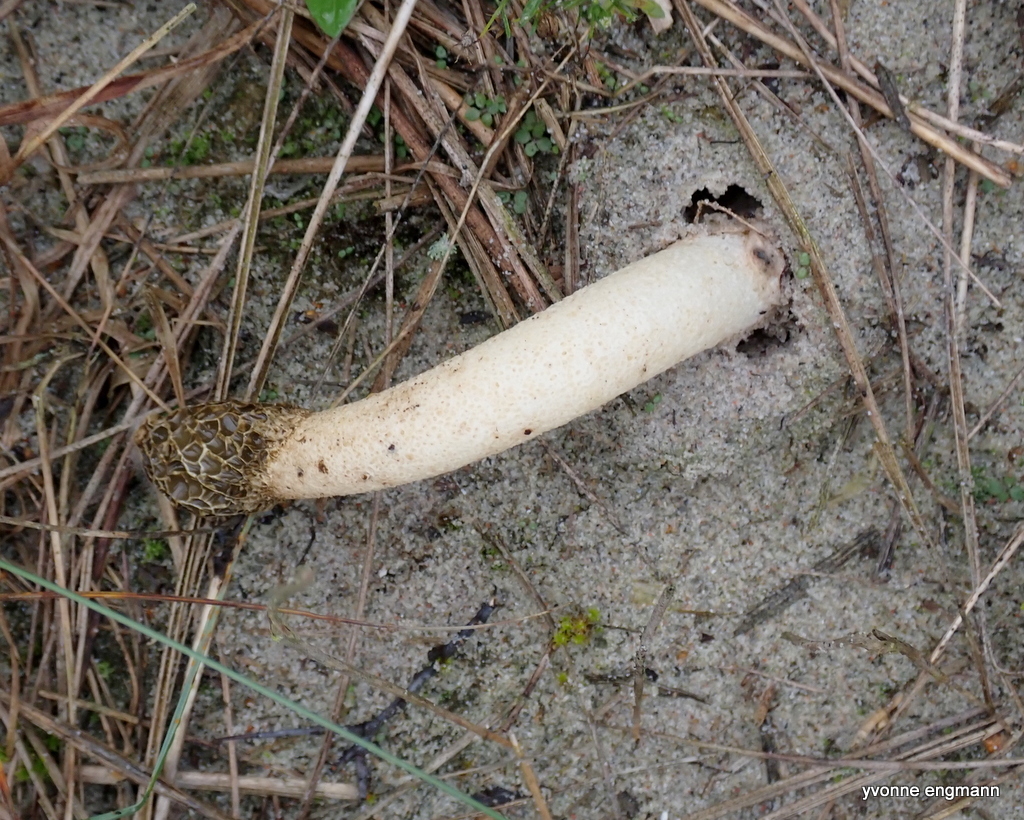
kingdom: Fungi
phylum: Basidiomycota
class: Agaricomycetes
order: Phallales
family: Phallaceae
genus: Phallus
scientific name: Phallus hadriani
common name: Sand stinkhorn
